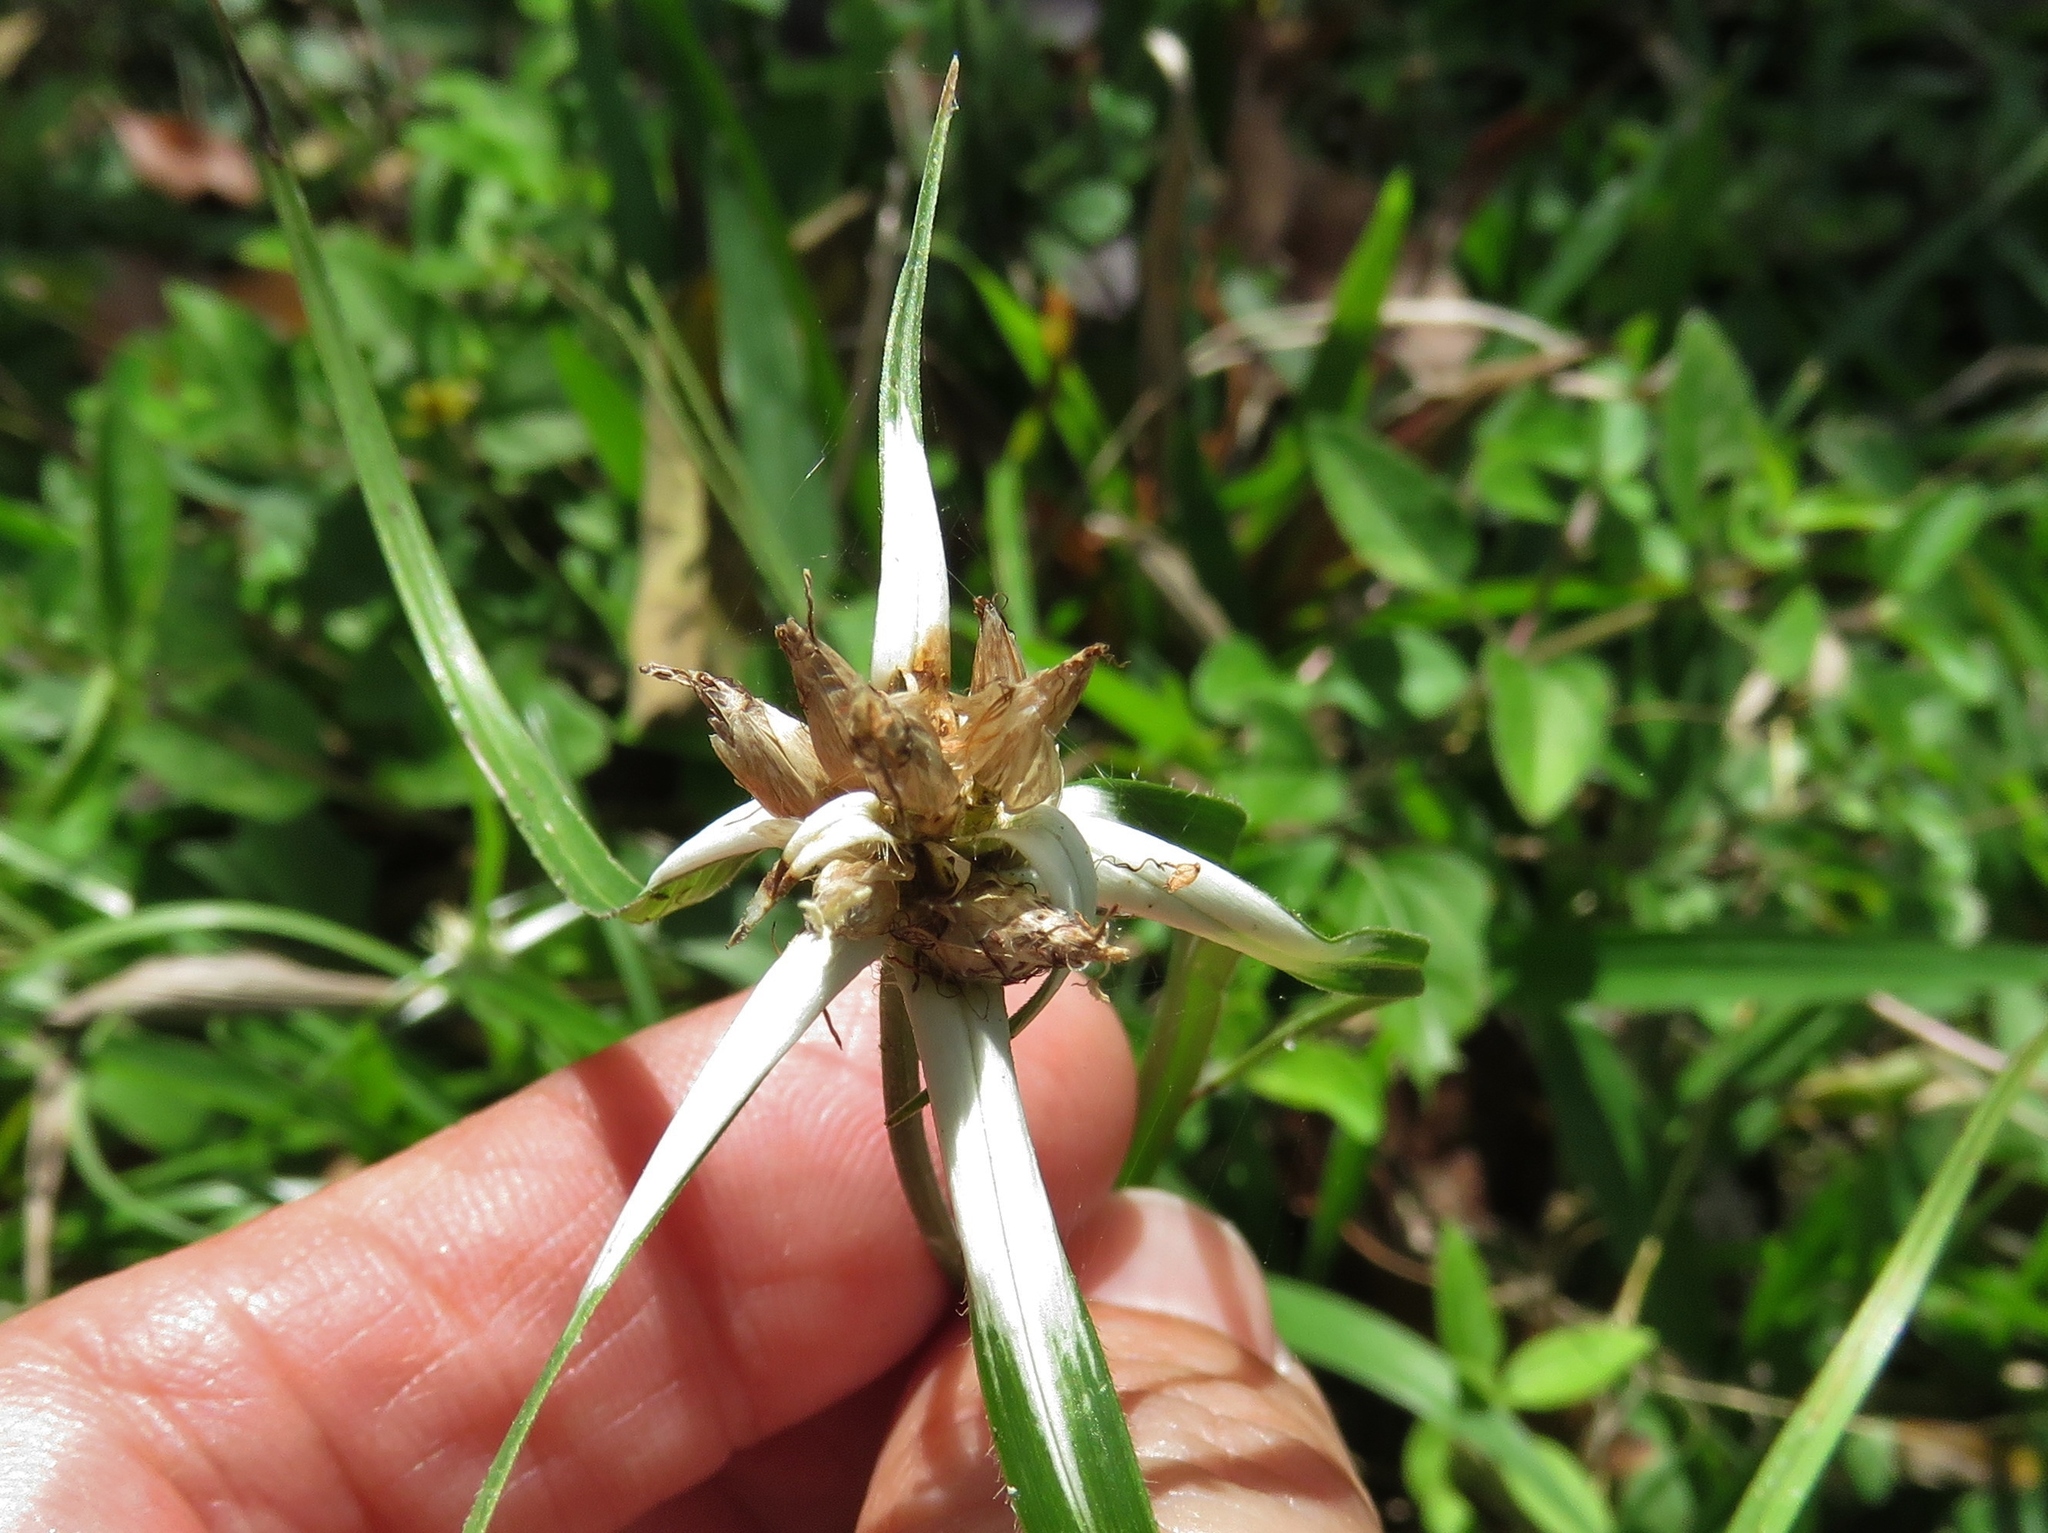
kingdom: Plantae
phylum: Tracheophyta
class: Liliopsida
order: Poales
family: Cyperaceae
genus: Rhynchospora
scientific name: Rhynchospora colorata
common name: Star sedge
